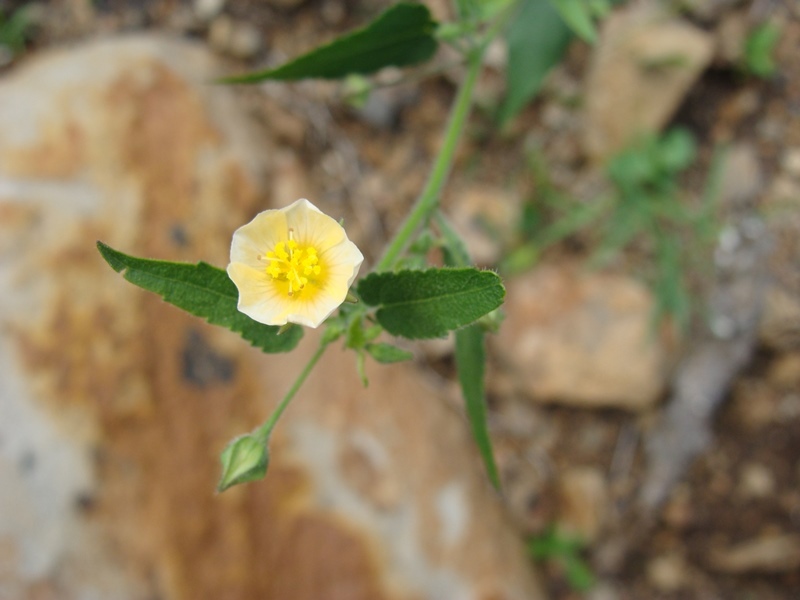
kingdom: Plantae
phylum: Tracheophyta
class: Magnoliopsida
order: Malvales
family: Malvaceae
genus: Sida
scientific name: Sida glabra
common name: Smooth fanpetals
